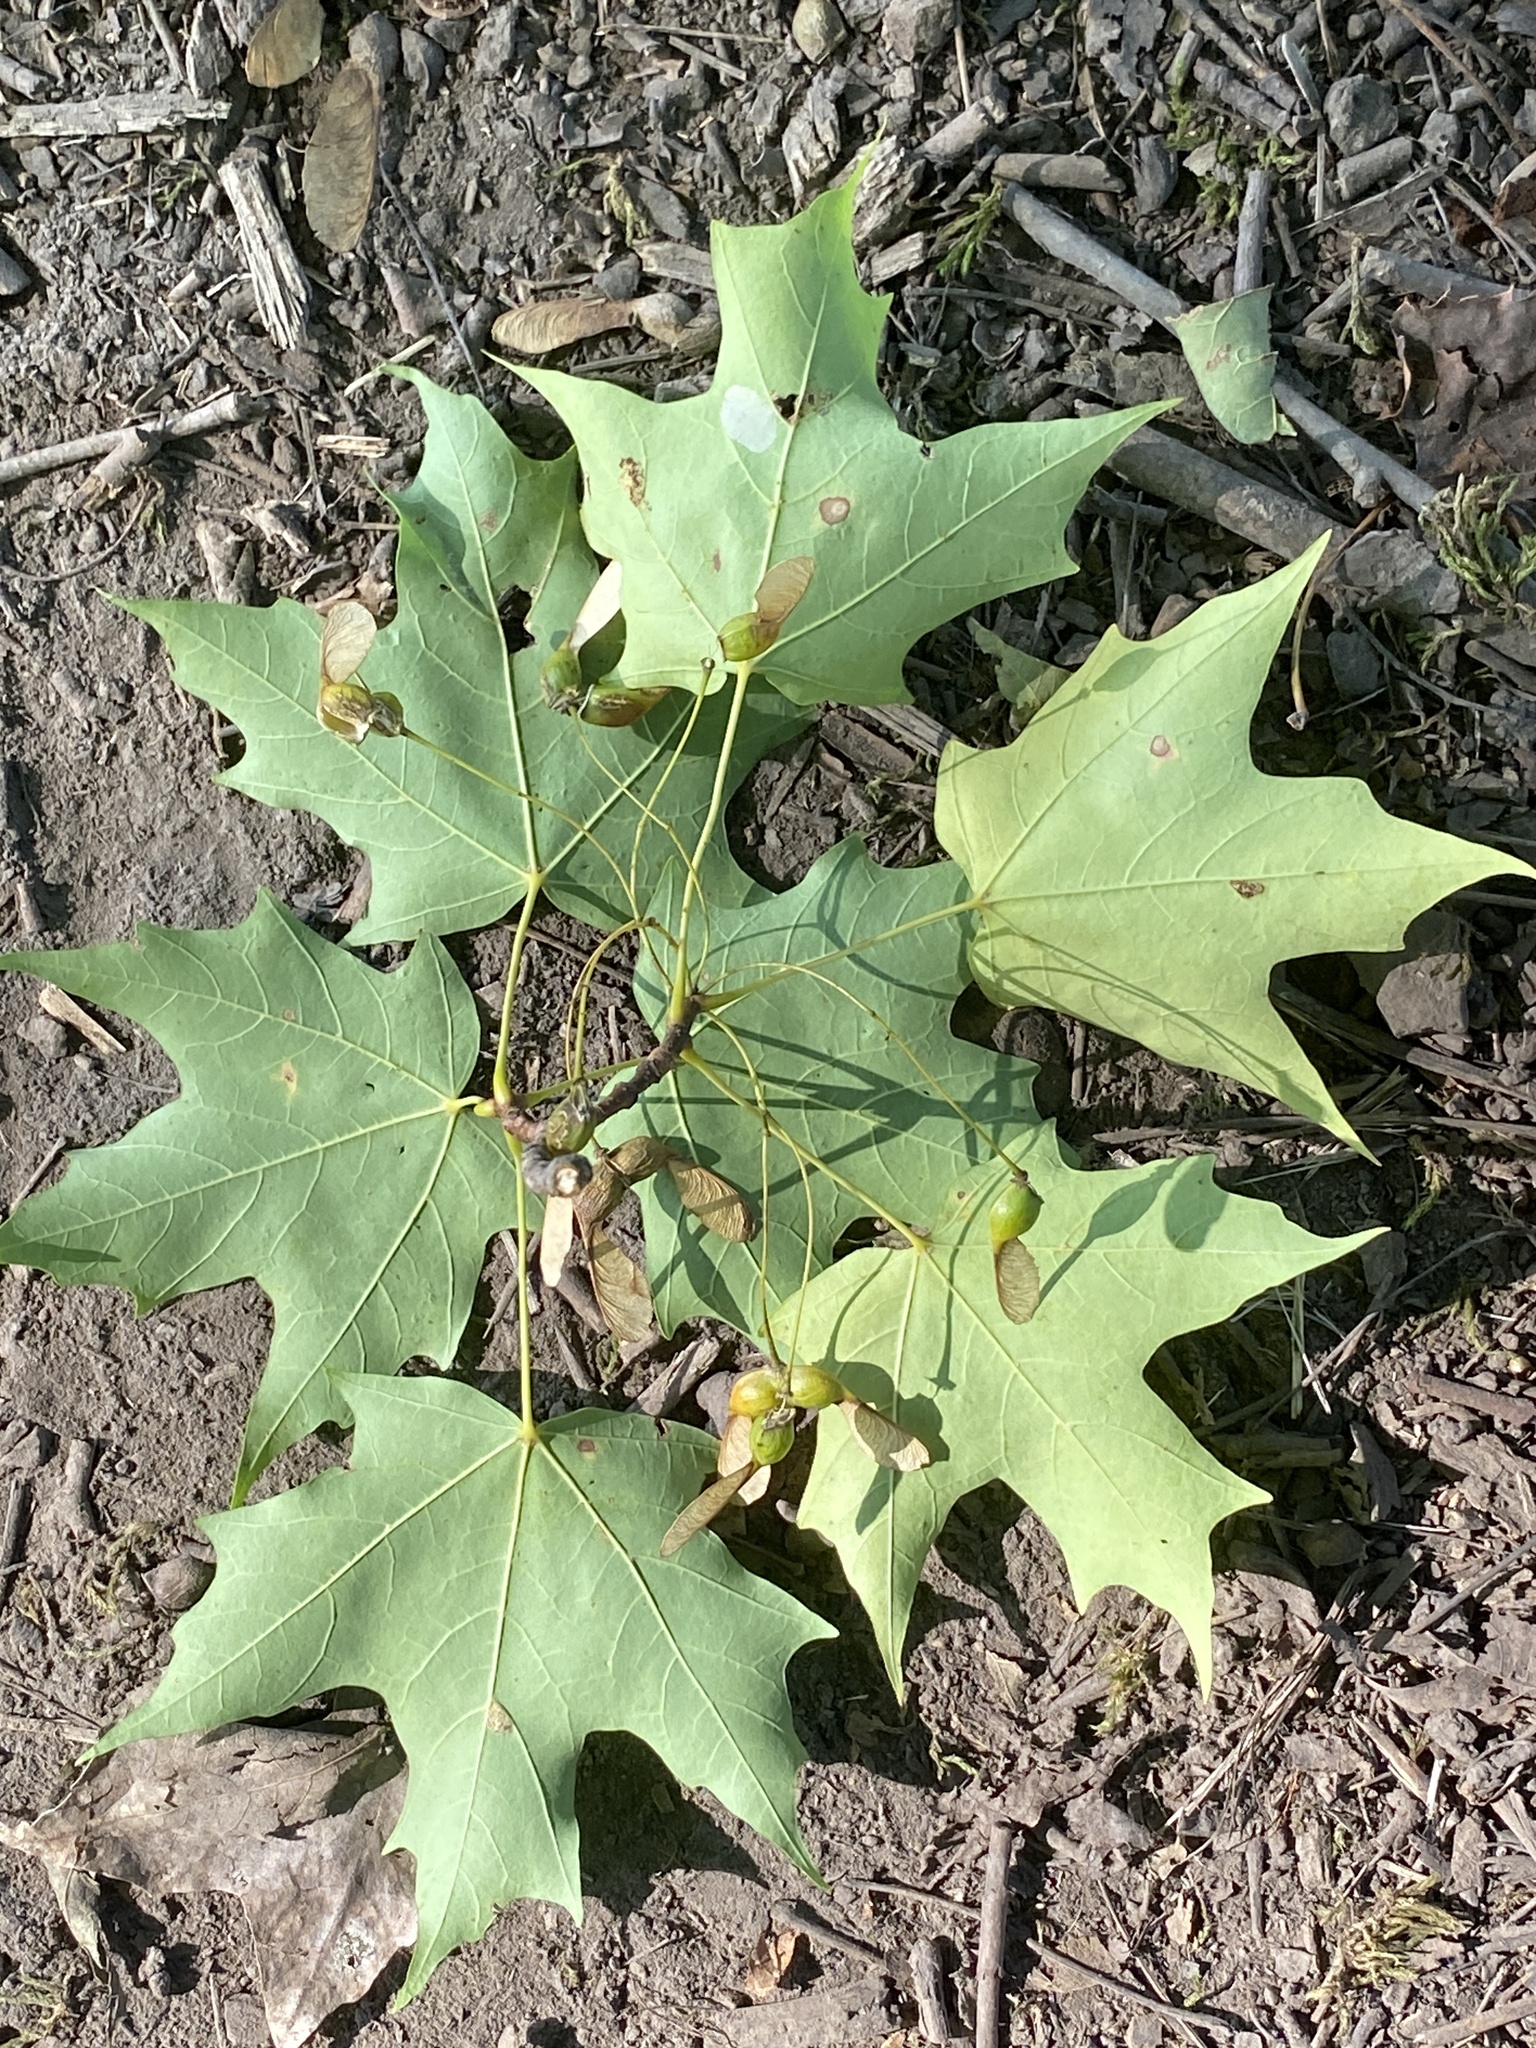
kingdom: Plantae
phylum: Tracheophyta
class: Magnoliopsida
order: Sapindales
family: Sapindaceae
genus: Acer
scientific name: Acer saccharum
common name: Sugar maple
